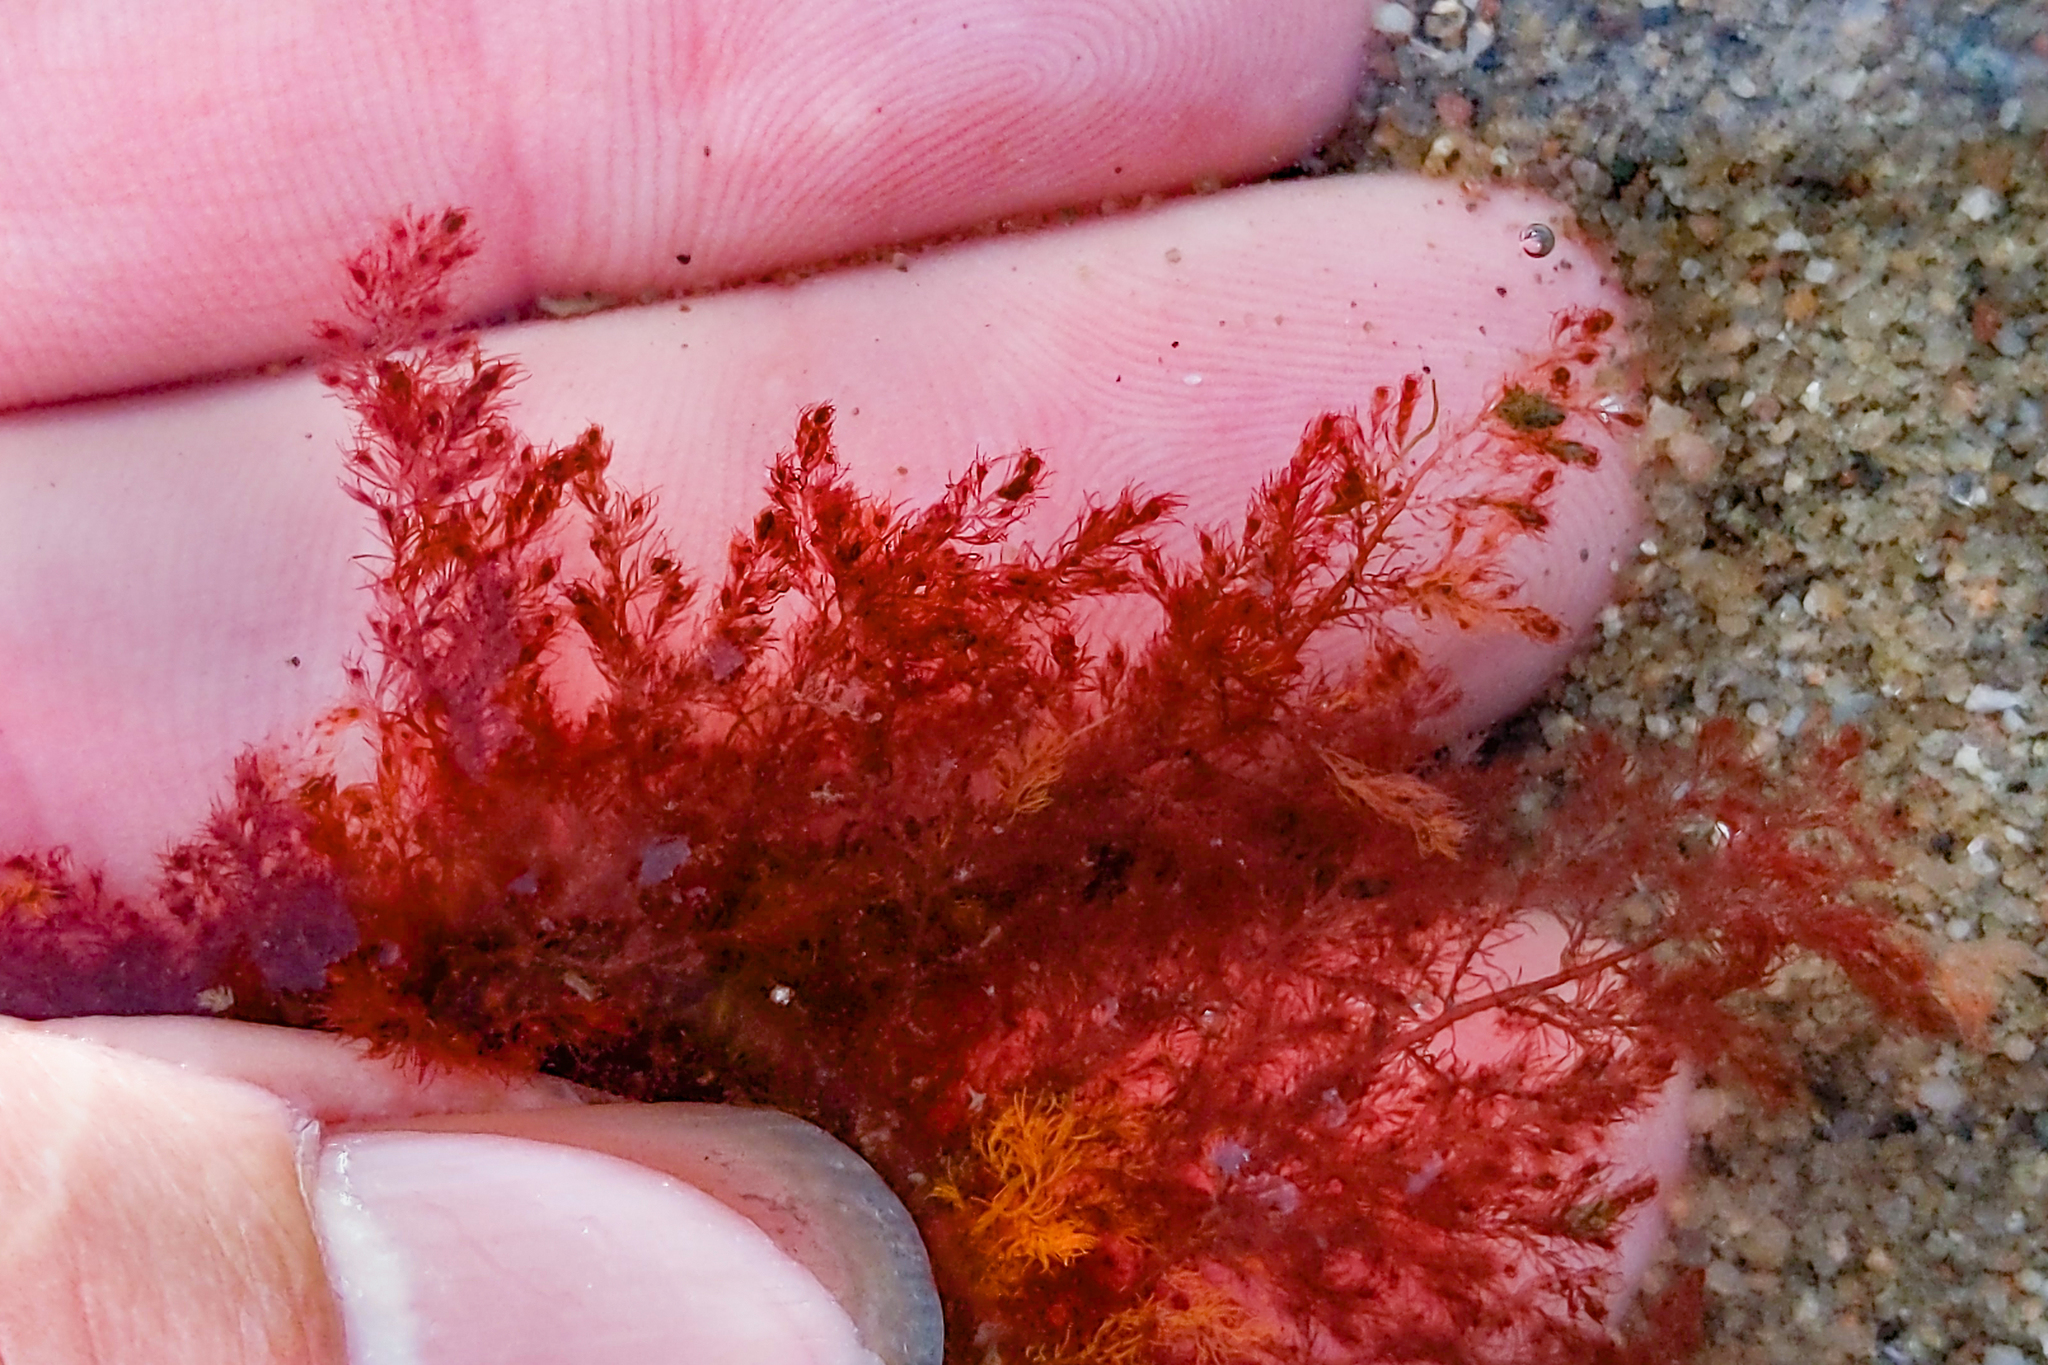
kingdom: Plantae
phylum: Rhodophyta
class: Florideophyceae
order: Ceramiales
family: Dasyaceae
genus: Dasysiphonia
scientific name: Dasysiphonia japonica
